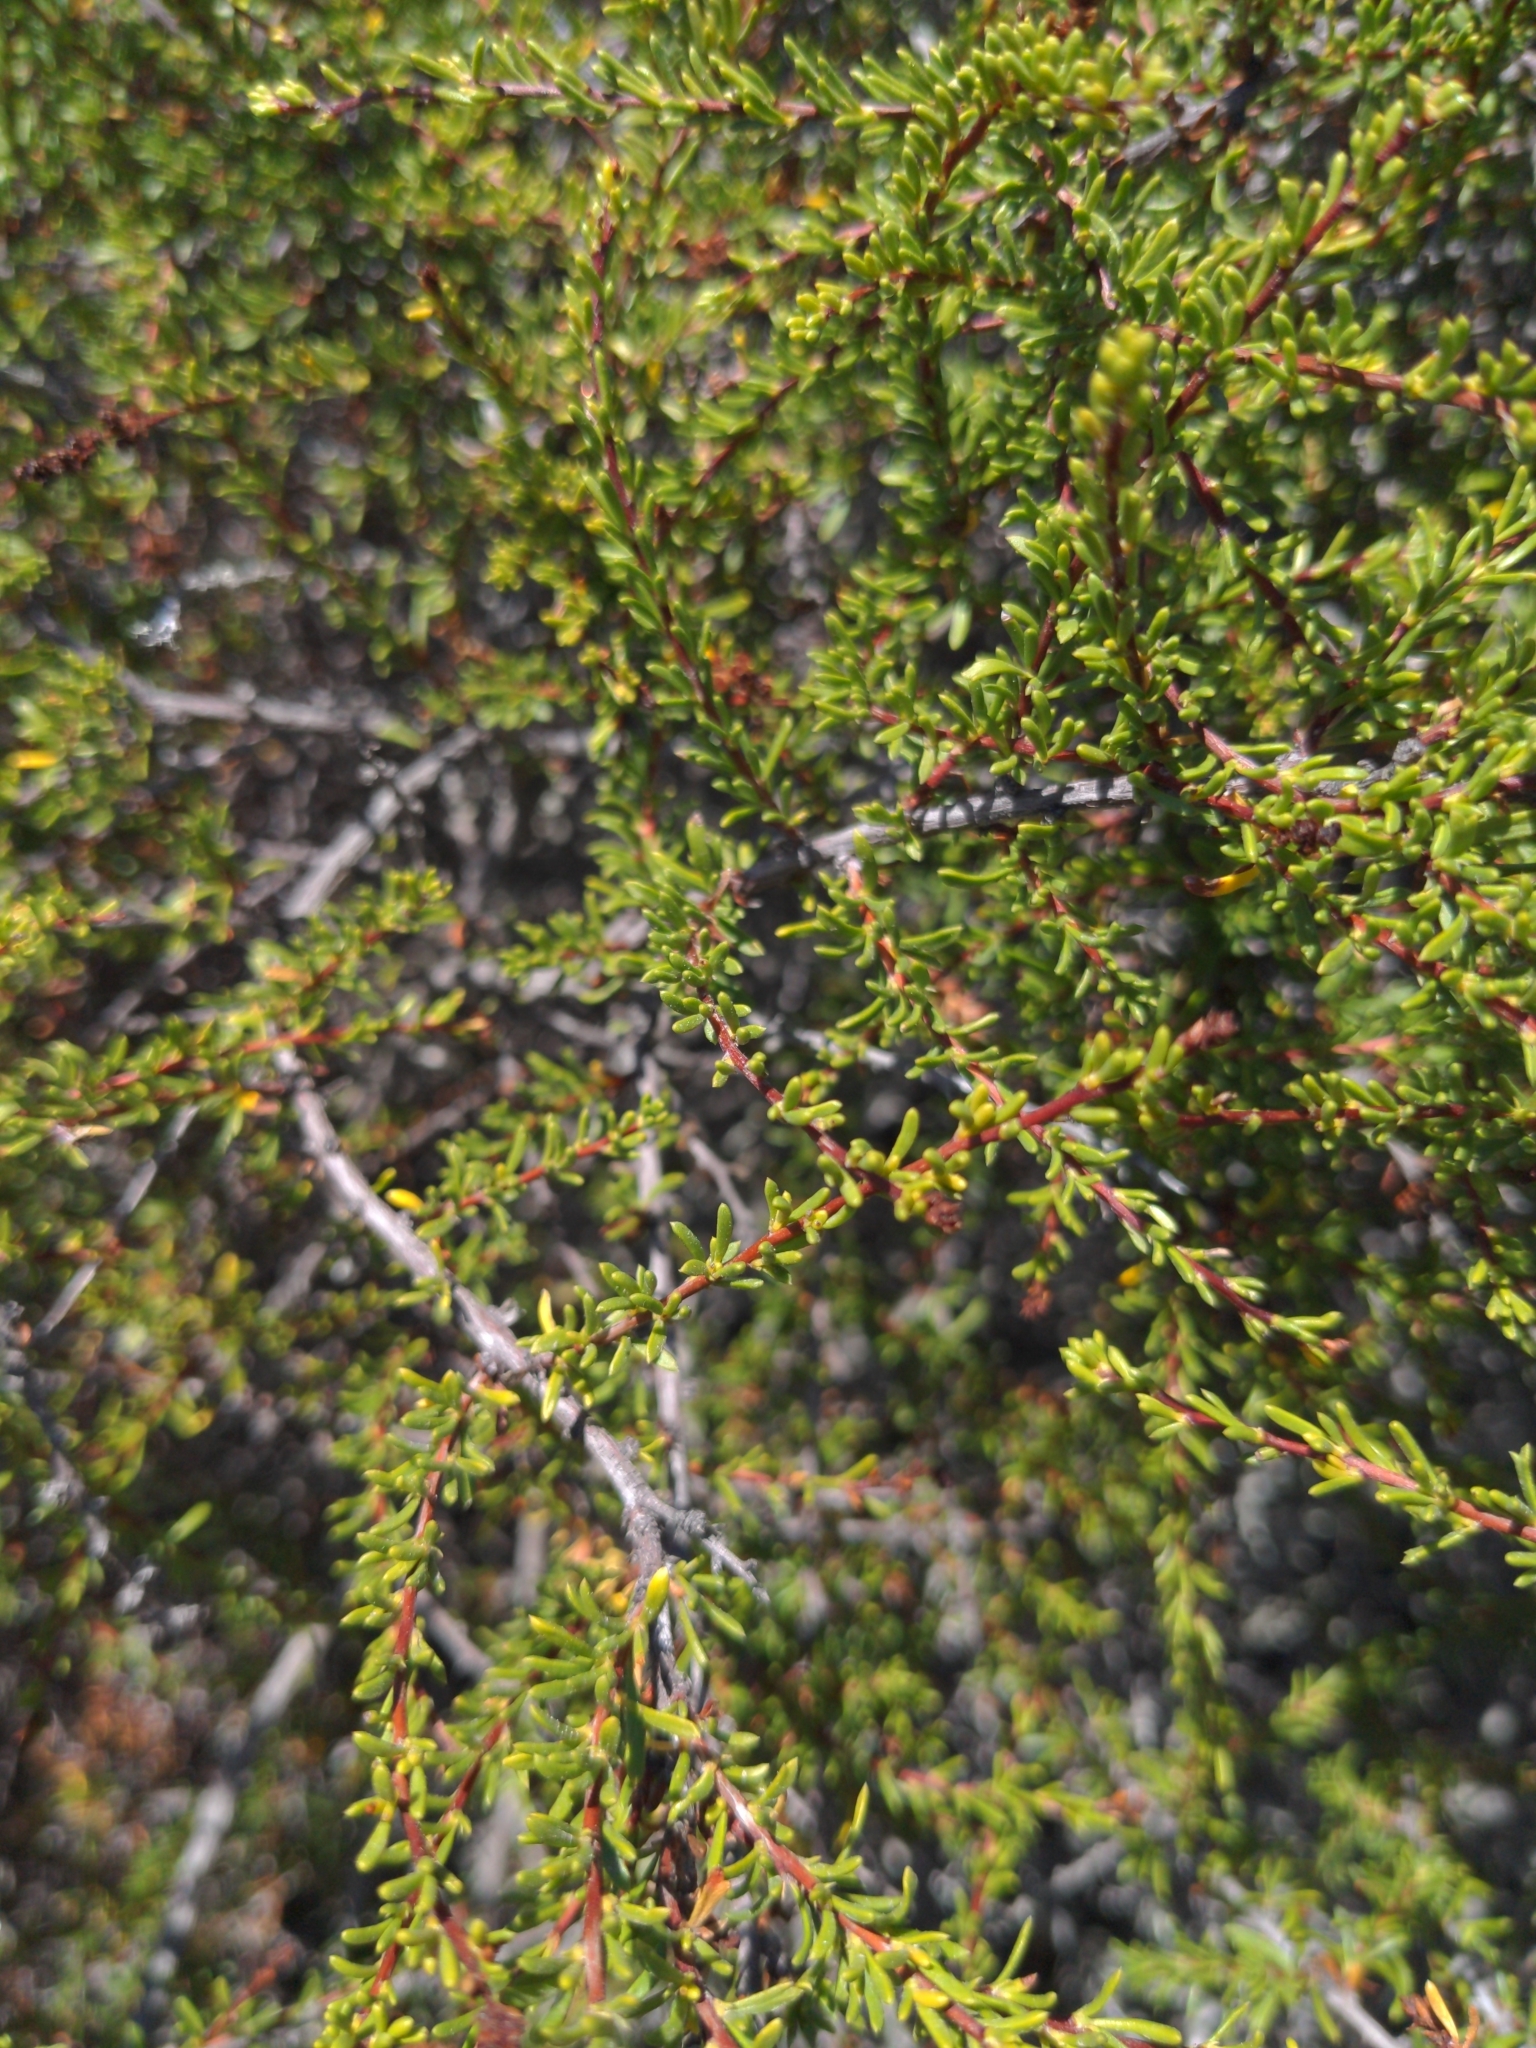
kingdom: Plantae
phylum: Tracheophyta
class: Magnoliopsida
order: Rosales
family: Rosaceae
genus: Adenostoma
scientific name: Adenostoma fasciculatum
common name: Chamise
